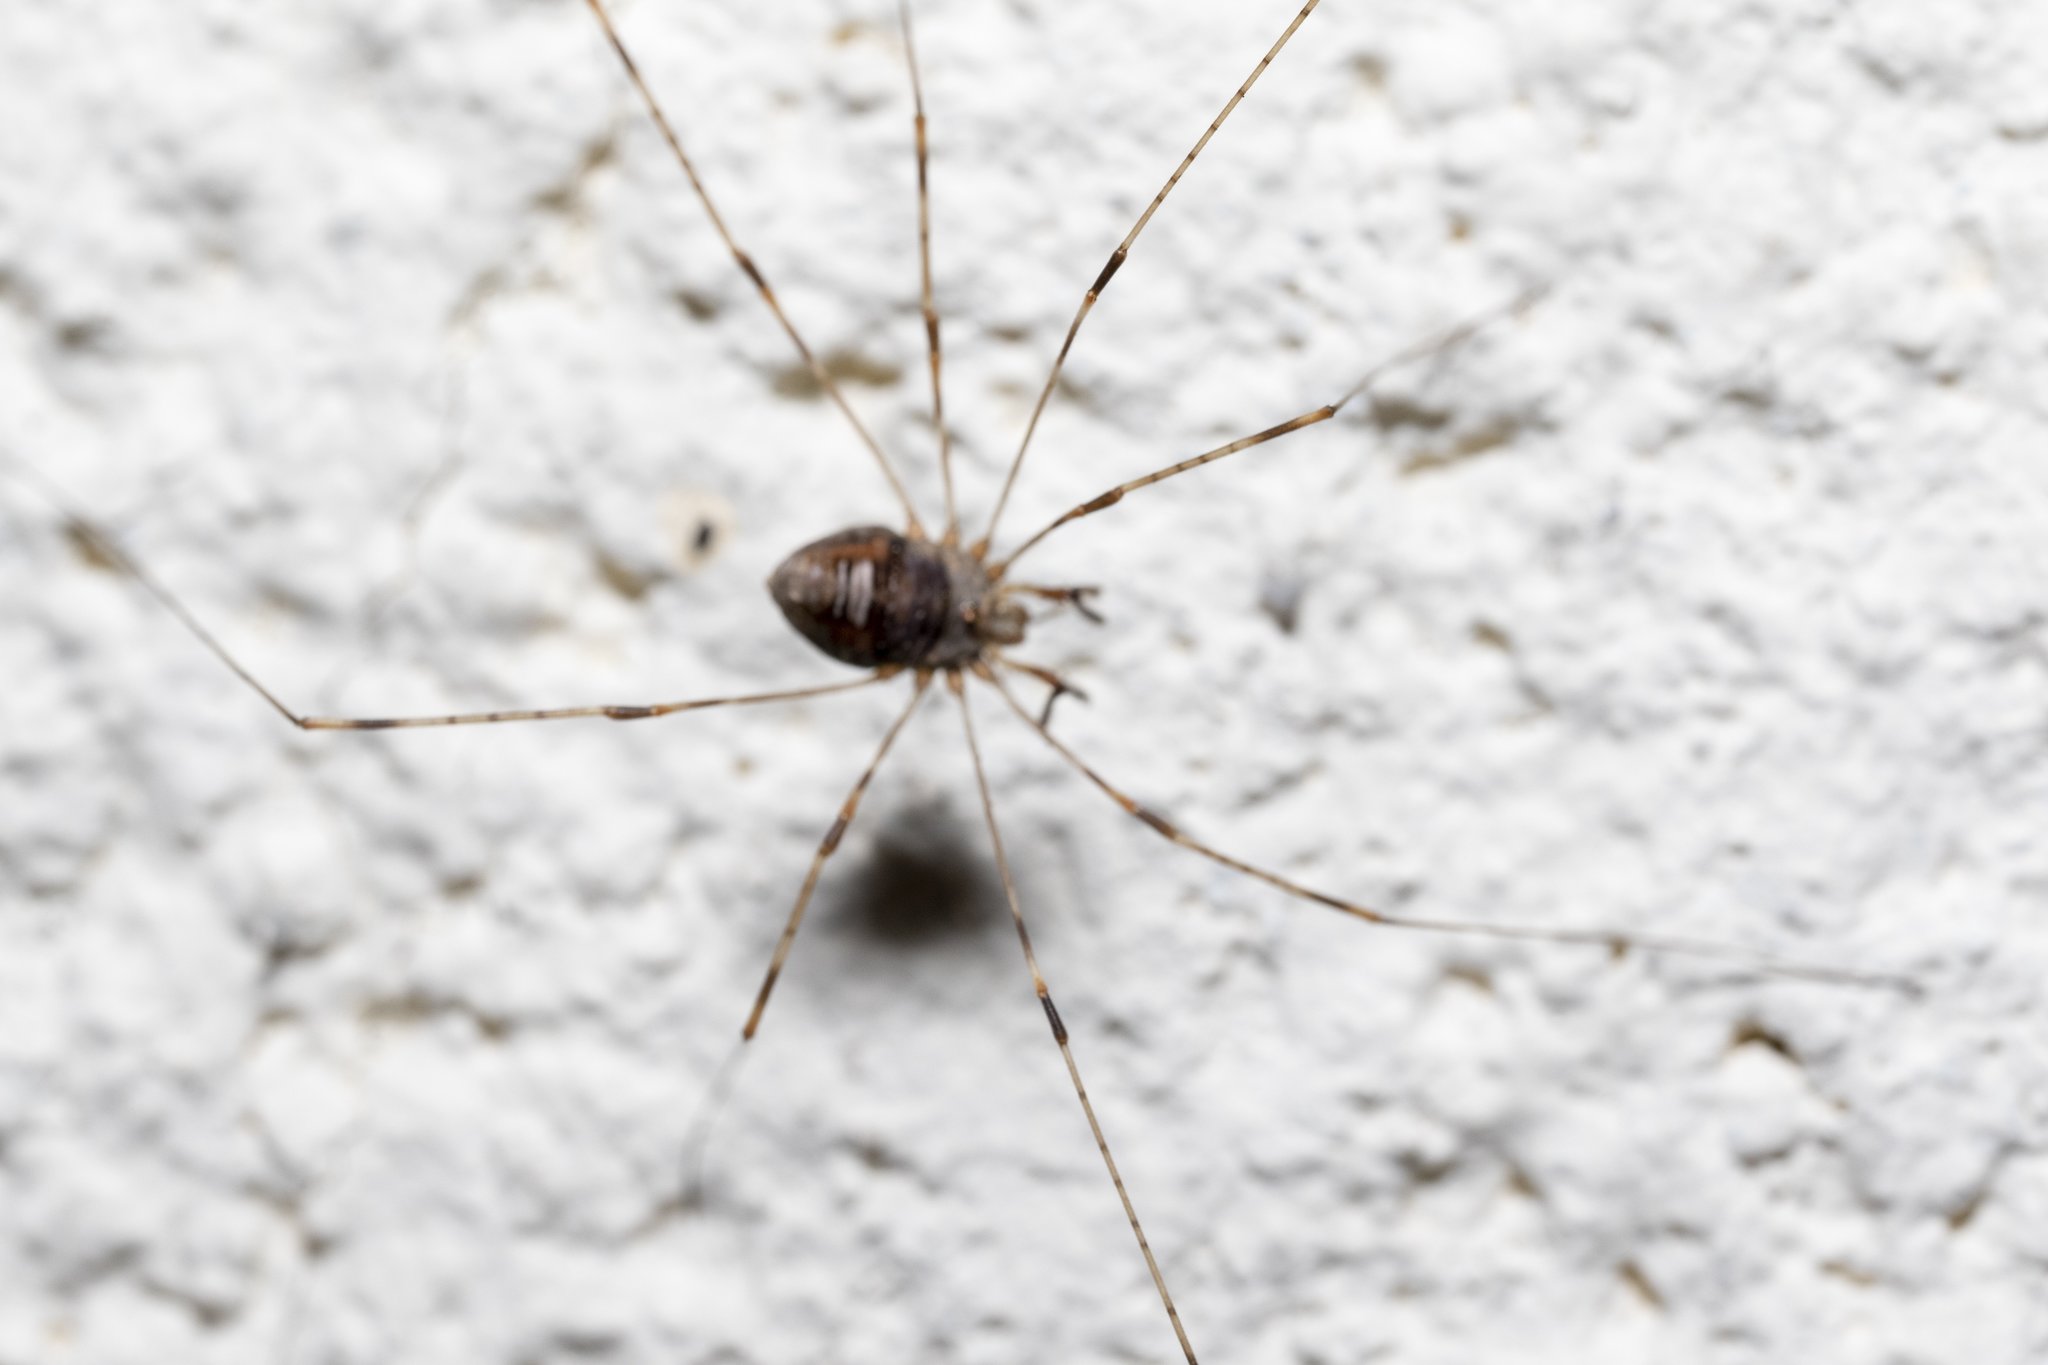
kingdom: Animalia
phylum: Arthropoda
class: Arachnida
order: Opiliones
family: Phalangiidae
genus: Dicranopalpus
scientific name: Dicranopalpus ramosus
